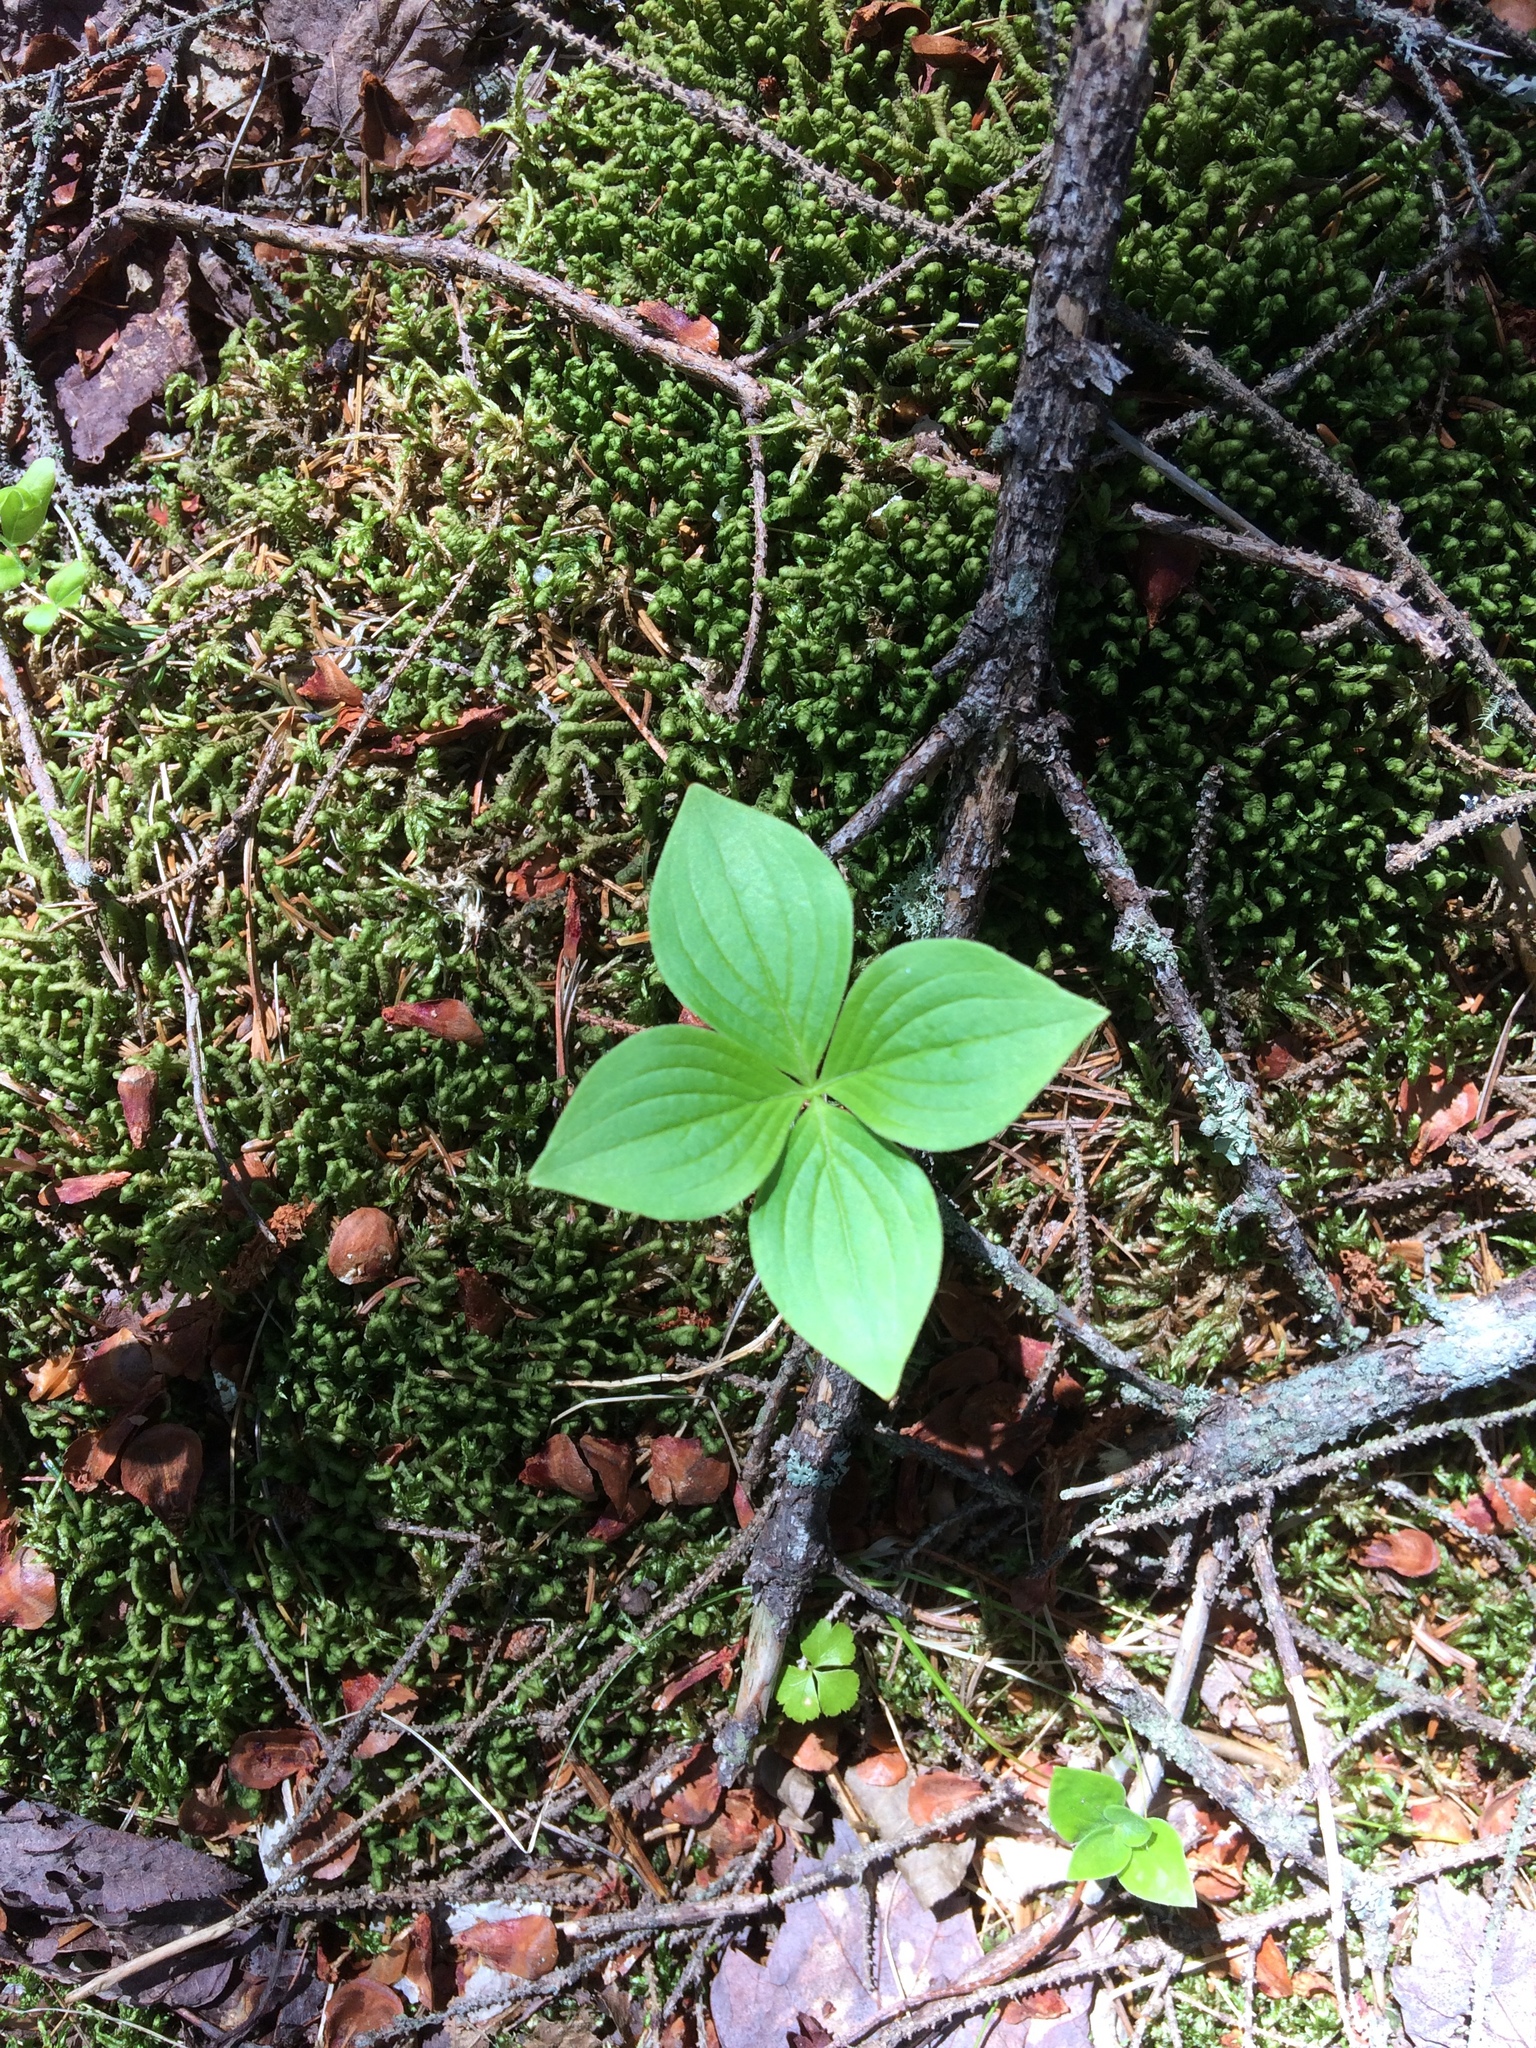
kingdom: Plantae
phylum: Tracheophyta
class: Magnoliopsida
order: Cornales
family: Cornaceae
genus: Cornus
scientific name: Cornus canadensis
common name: Creeping dogwood
